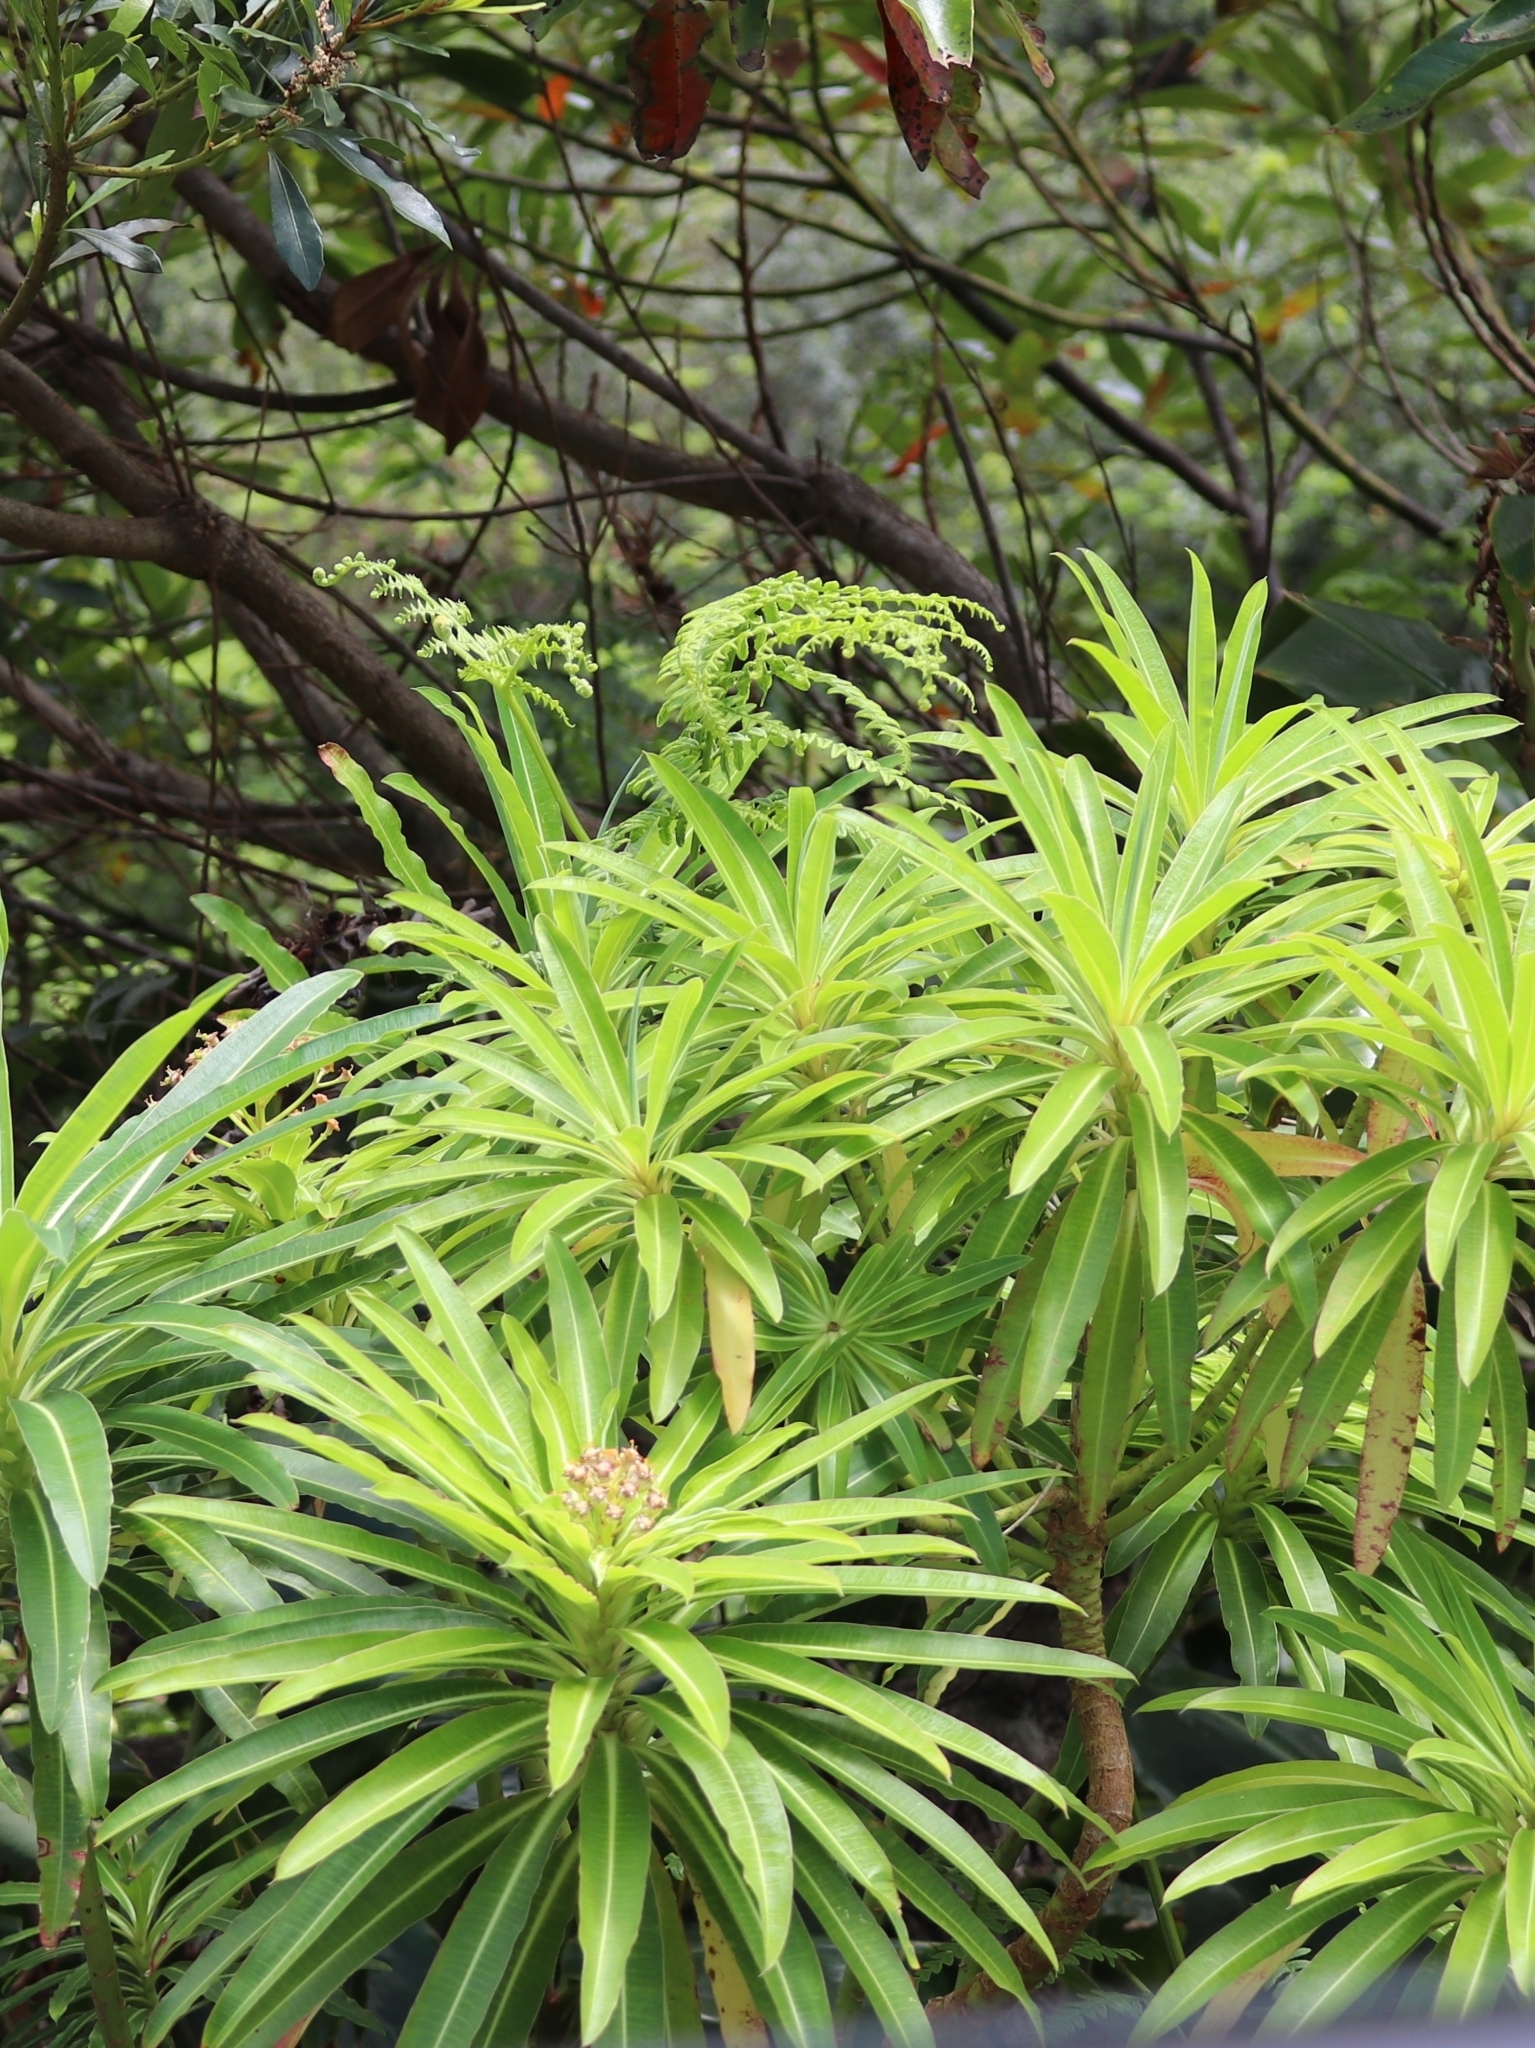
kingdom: Plantae
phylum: Tracheophyta
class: Magnoliopsida
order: Malpighiales
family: Euphorbiaceae
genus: Euphorbia
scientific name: Euphorbia mellifera
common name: Canary spurge
